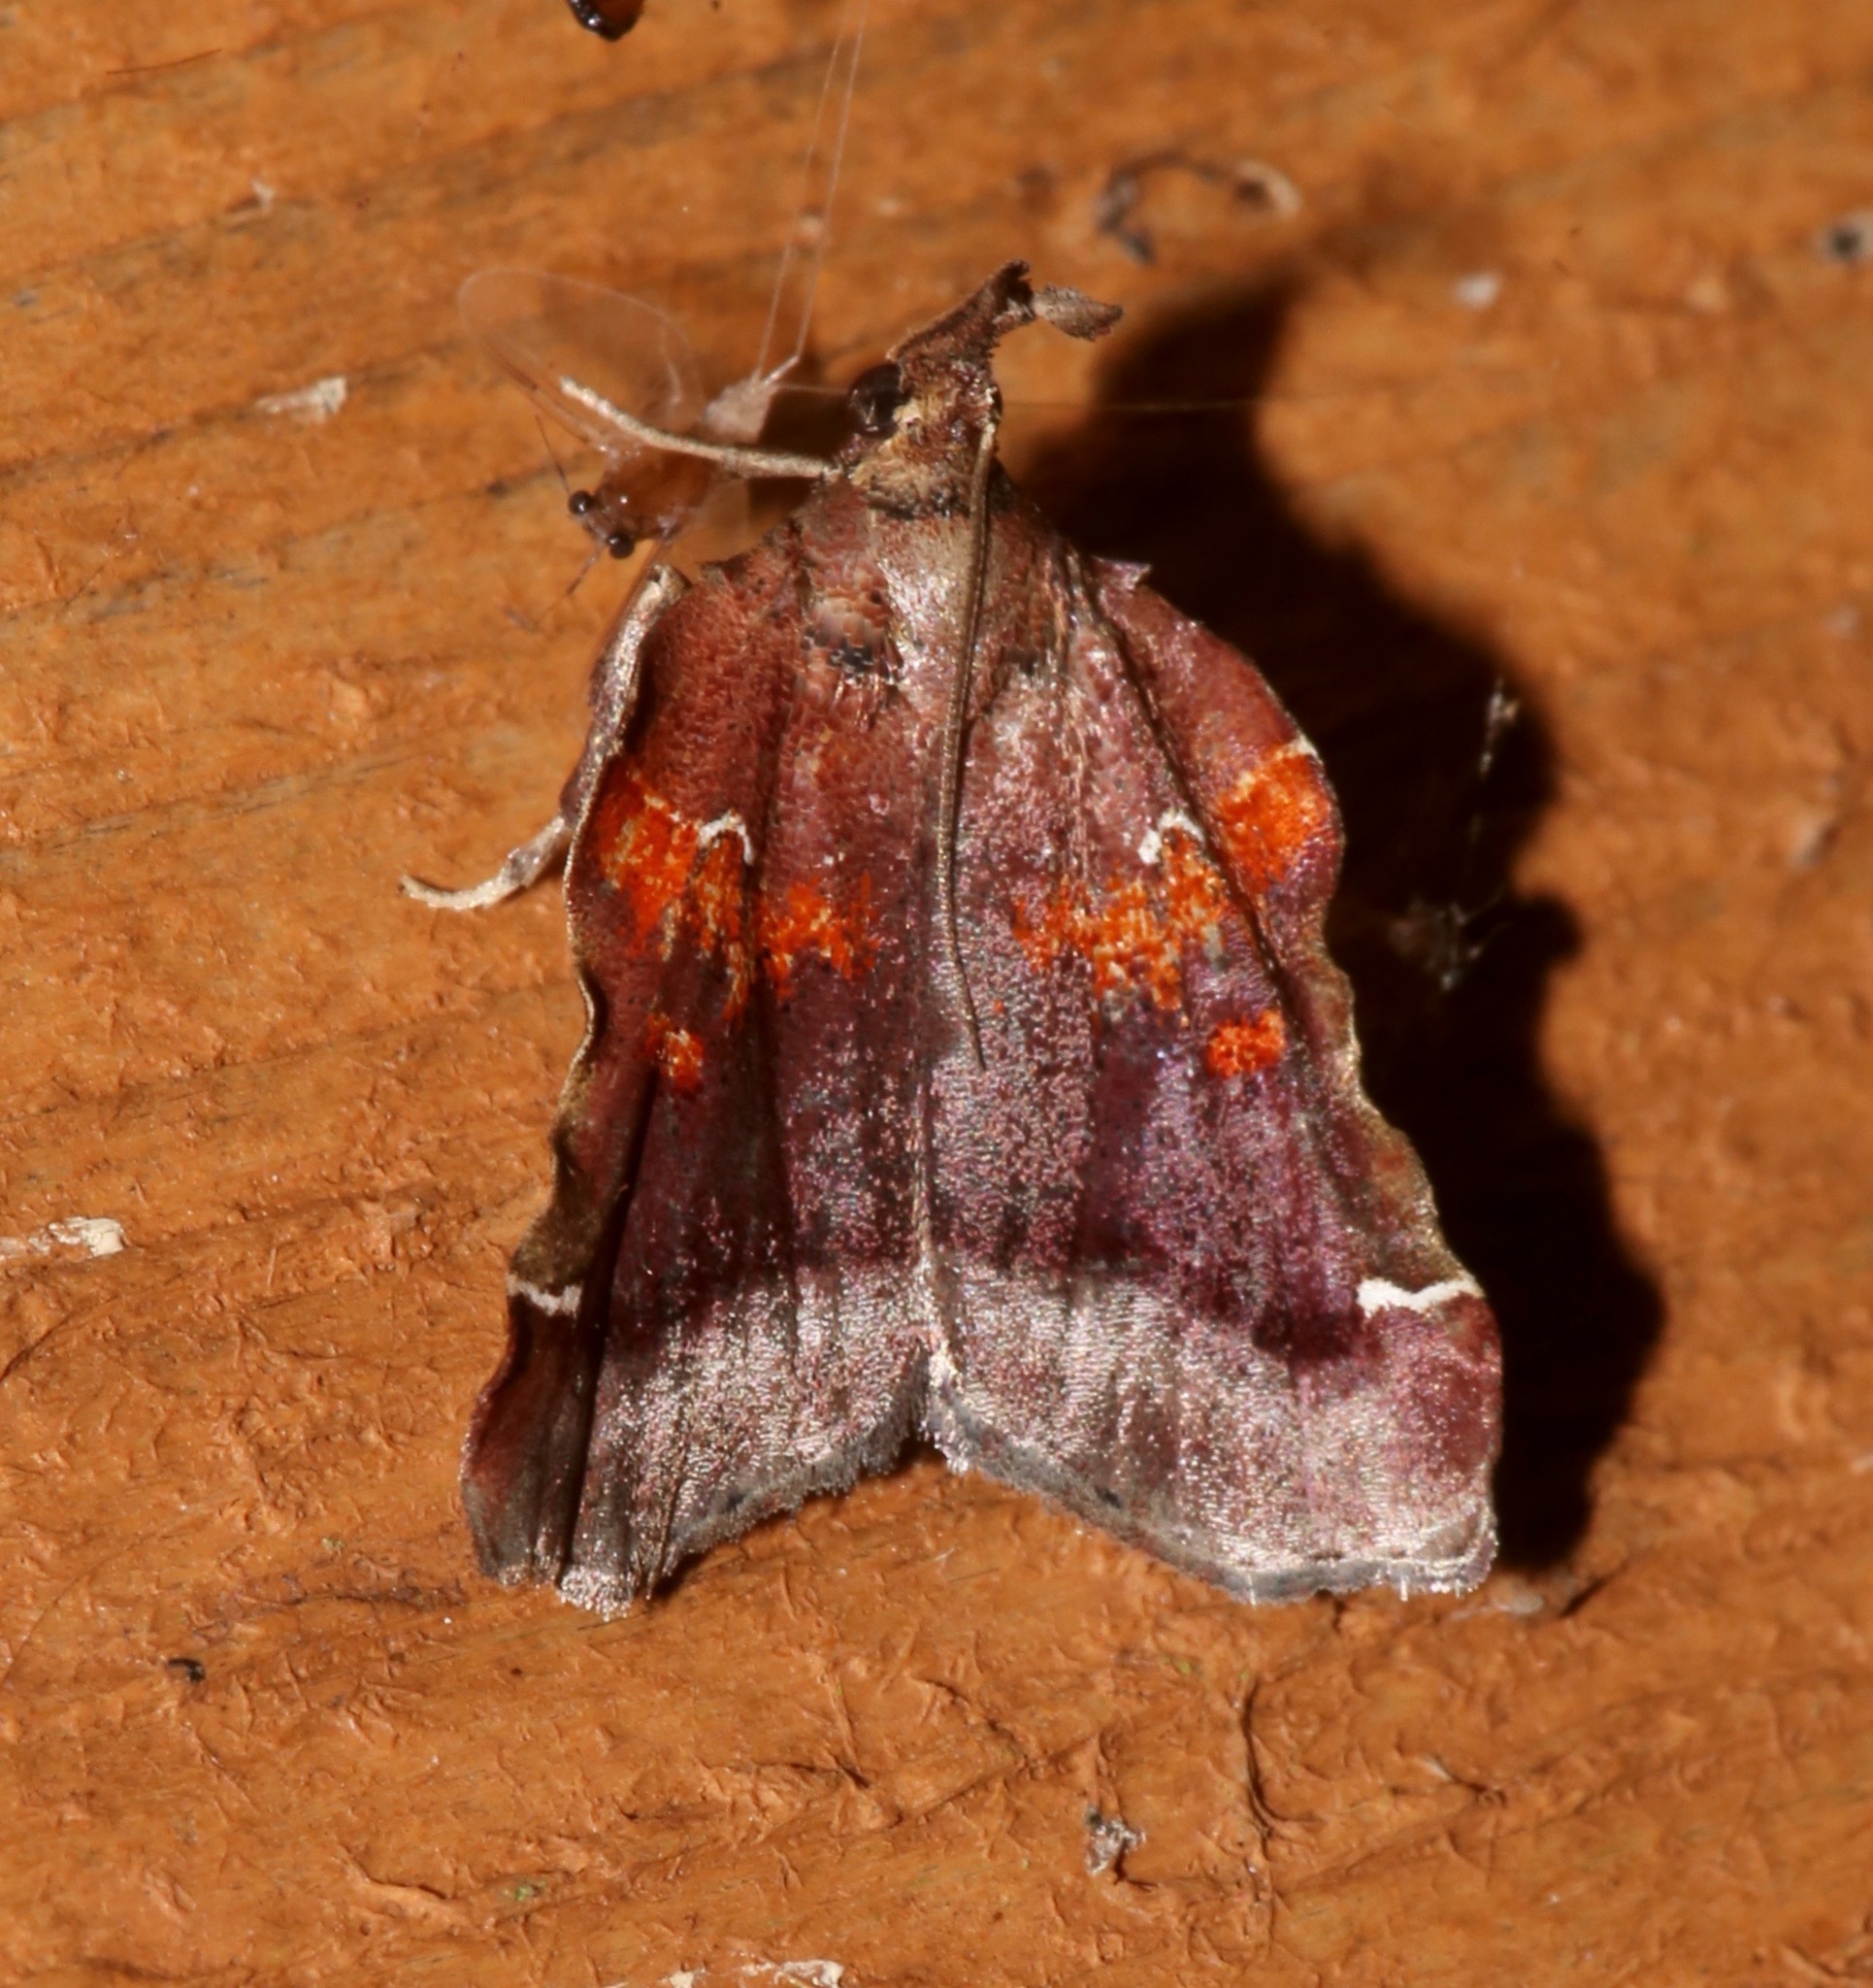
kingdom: Animalia
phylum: Arthropoda
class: Insecta
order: Lepidoptera
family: Pyralidae
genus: Clydonopteron
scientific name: Clydonopteron sacculana
